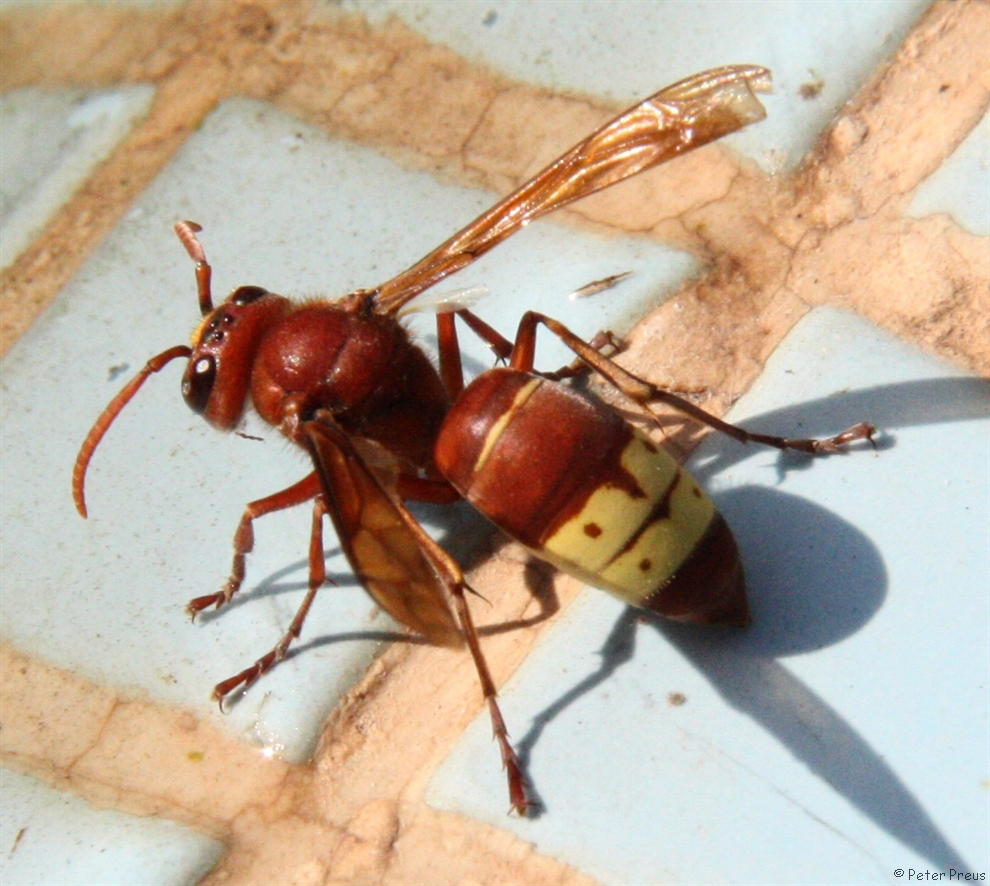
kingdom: Animalia
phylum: Arthropoda
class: Insecta
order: Hymenoptera
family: Vespidae
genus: Vespa
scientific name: Vespa orientalis
